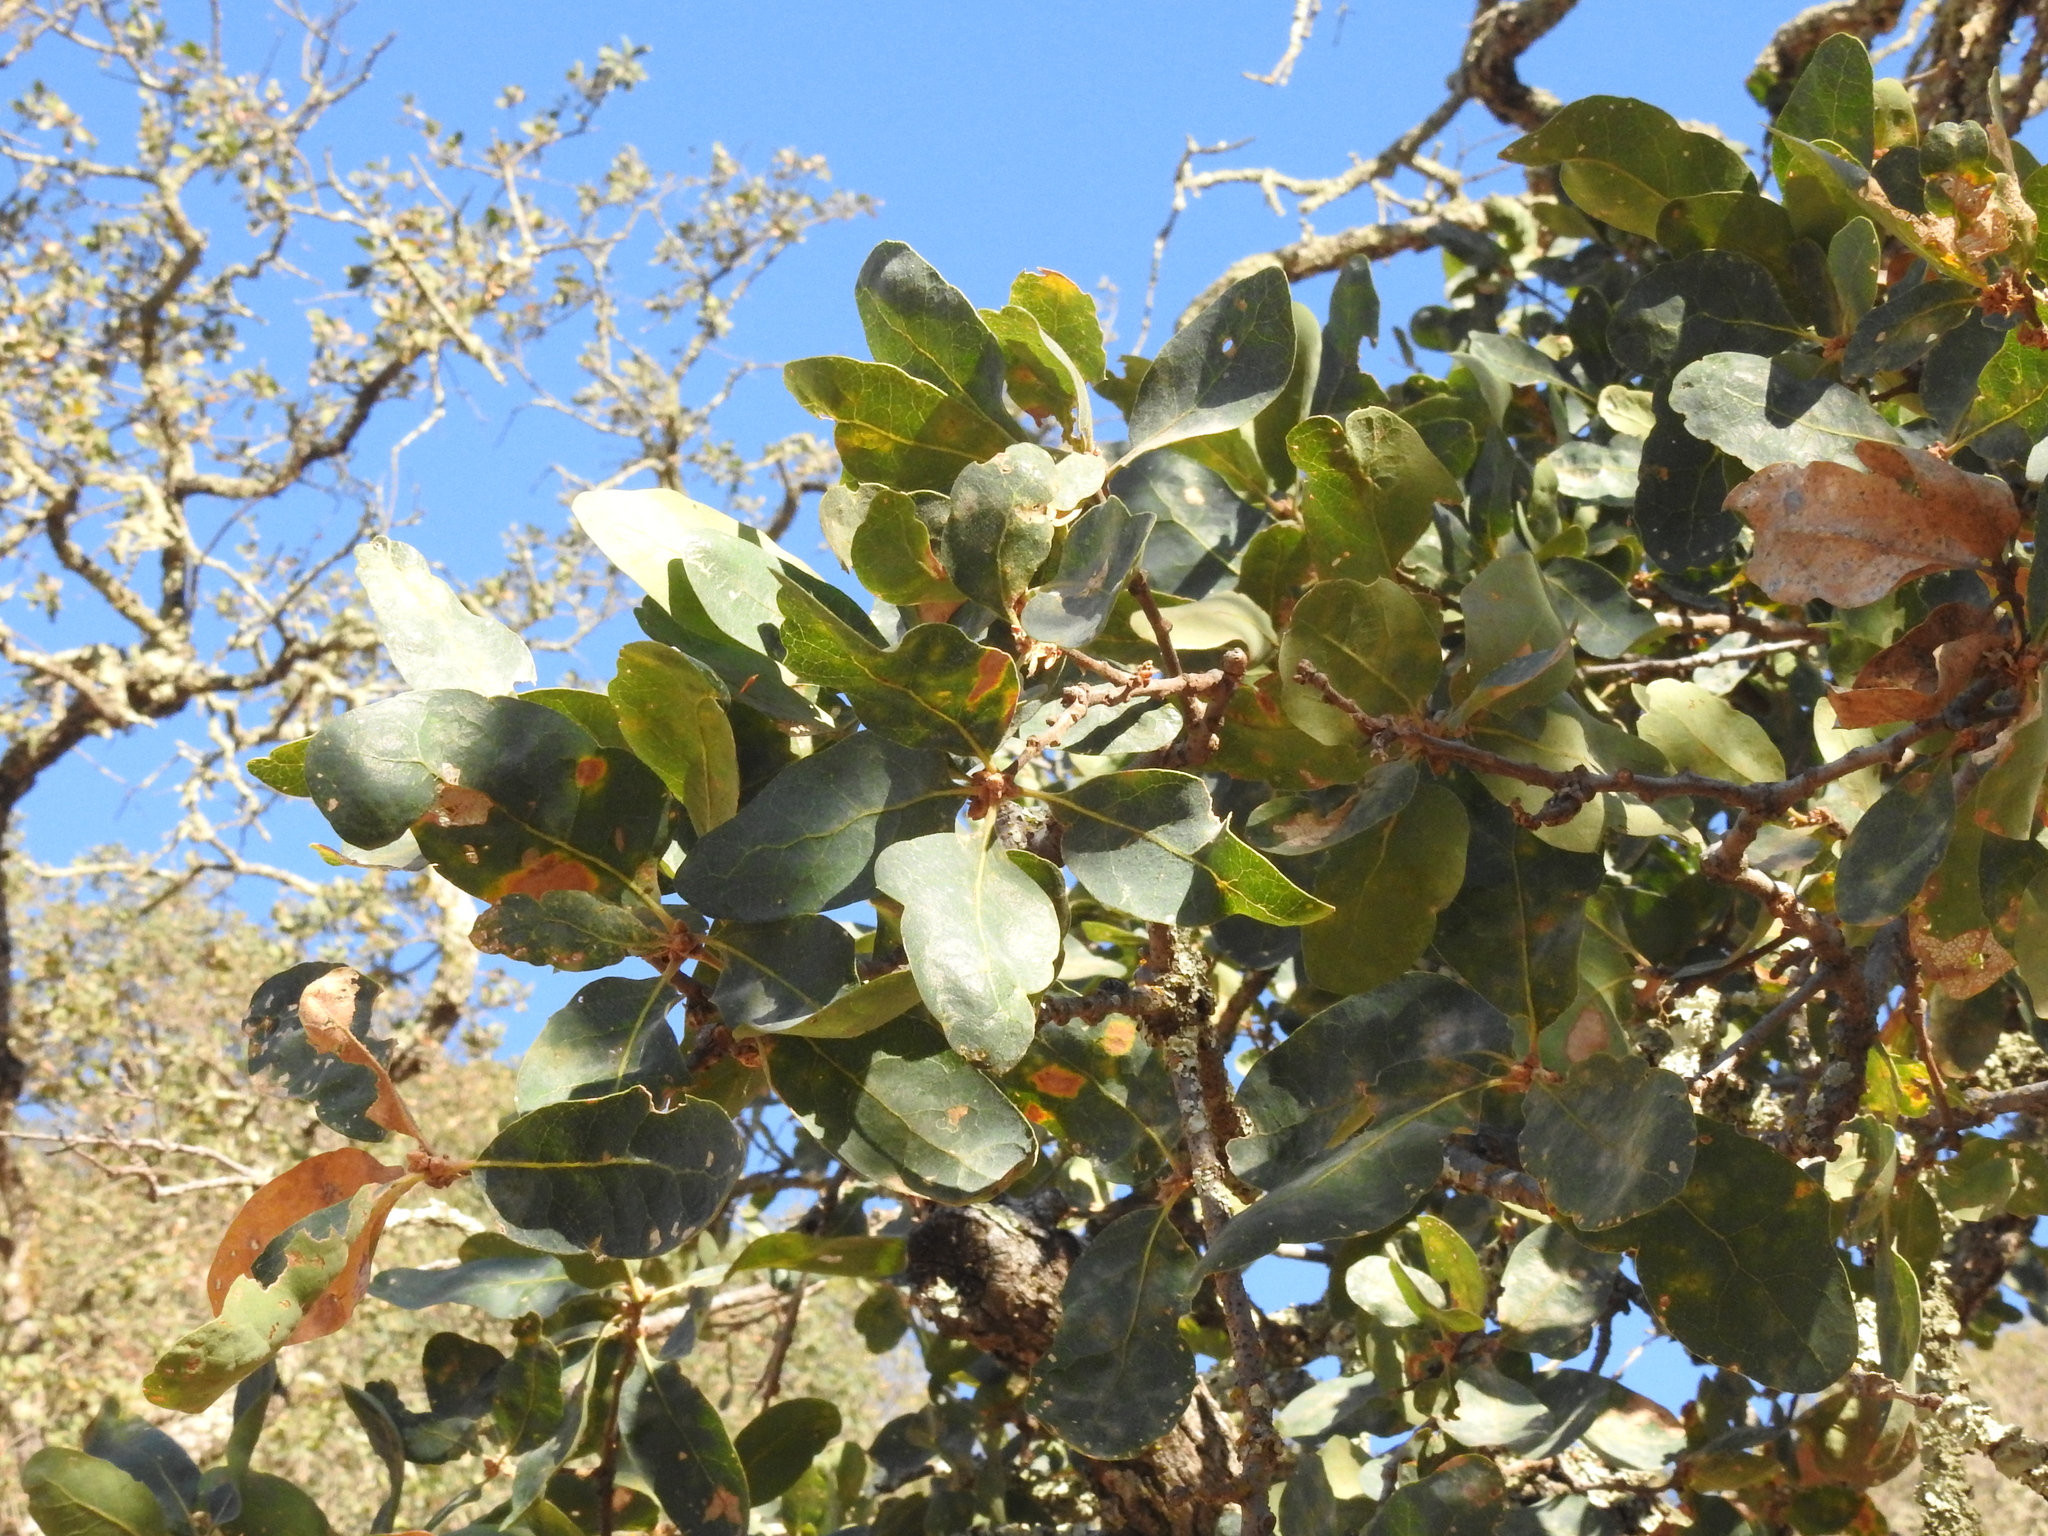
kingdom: Plantae
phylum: Tracheophyta
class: Magnoliopsida
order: Fagales
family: Fagaceae
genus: Quercus
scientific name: Quercus douglasii
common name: Blue oak
